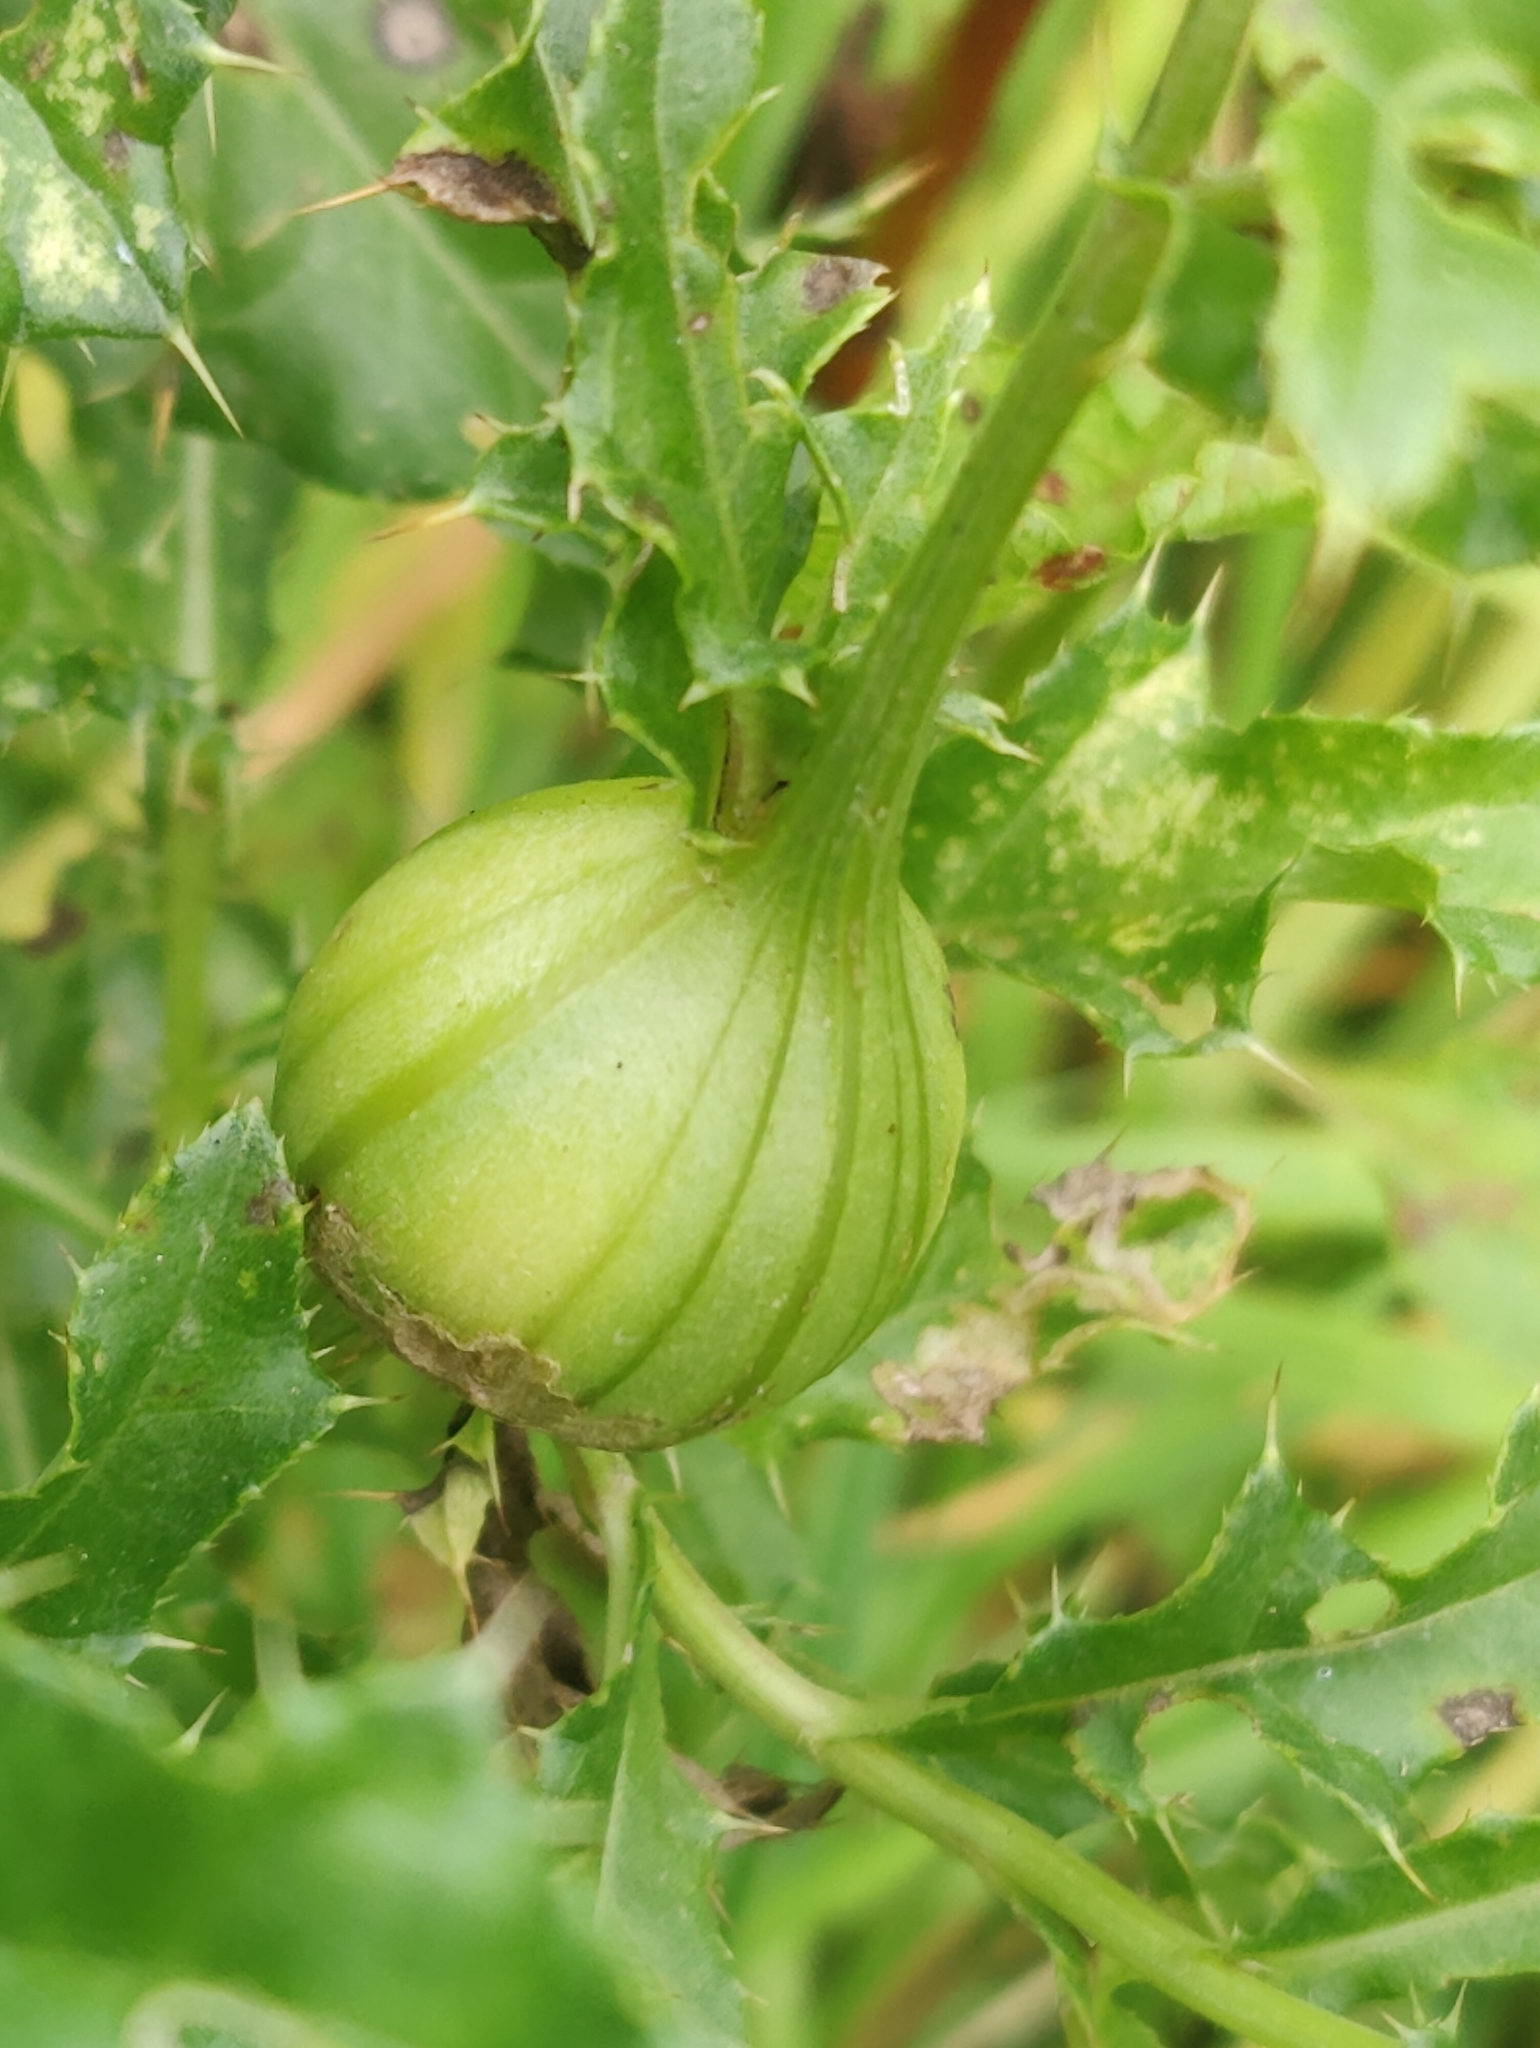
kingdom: Animalia
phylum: Arthropoda
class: Insecta
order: Diptera
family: Tephritidae
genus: Urophora
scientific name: Urophora cardui
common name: Fruit fly
